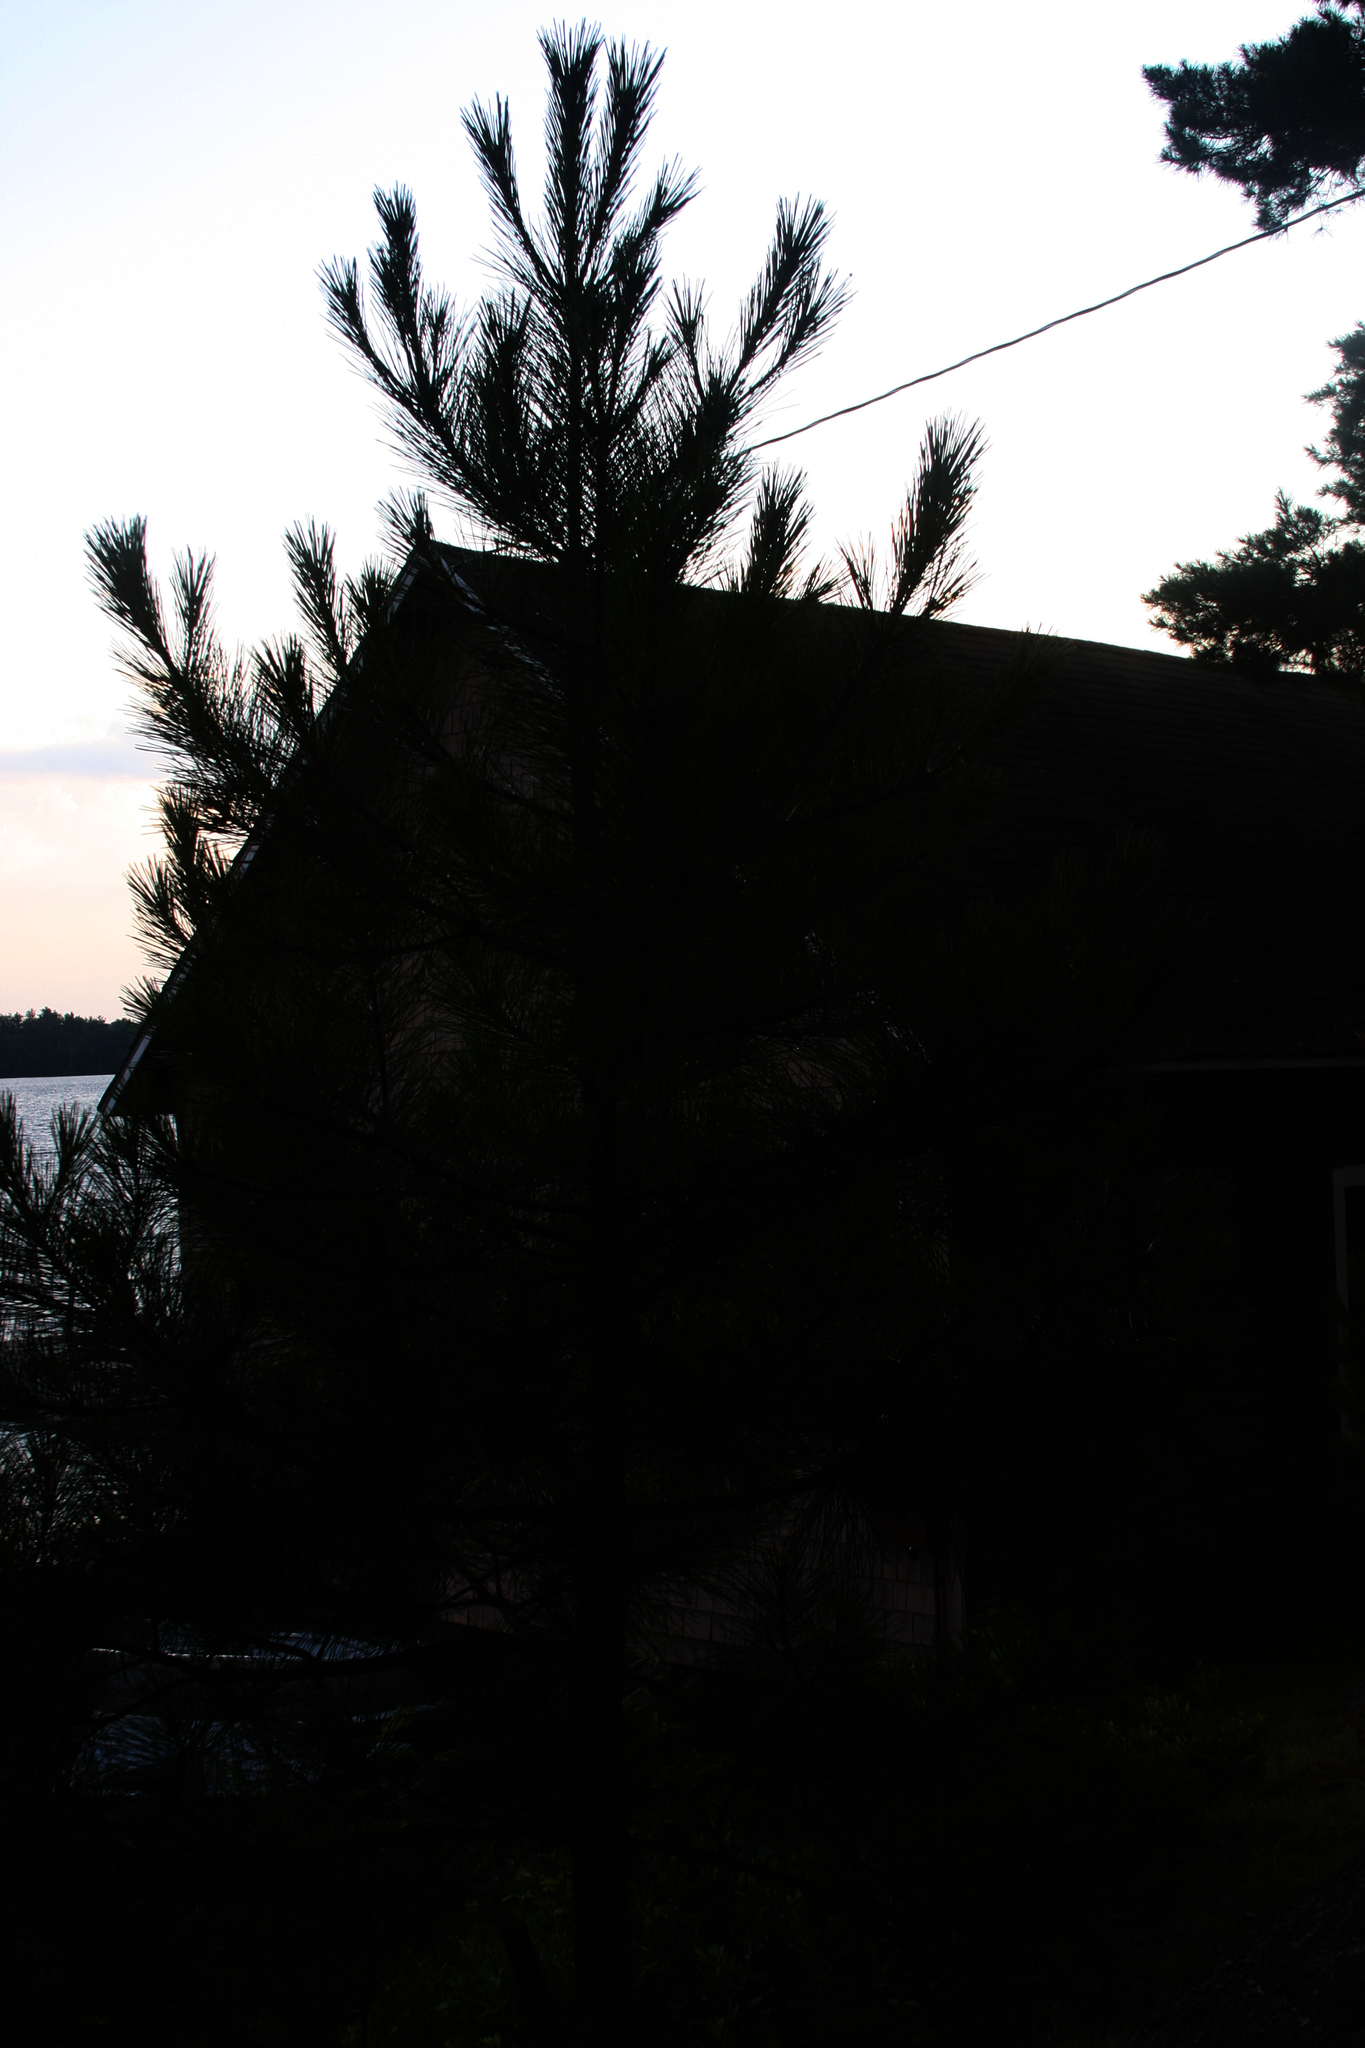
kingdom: Plantae
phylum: Tracheophyta
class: Pinopsida
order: Pinales
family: Pinaceae
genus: Pinus
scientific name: Pinus strobus
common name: Weymouth pine
